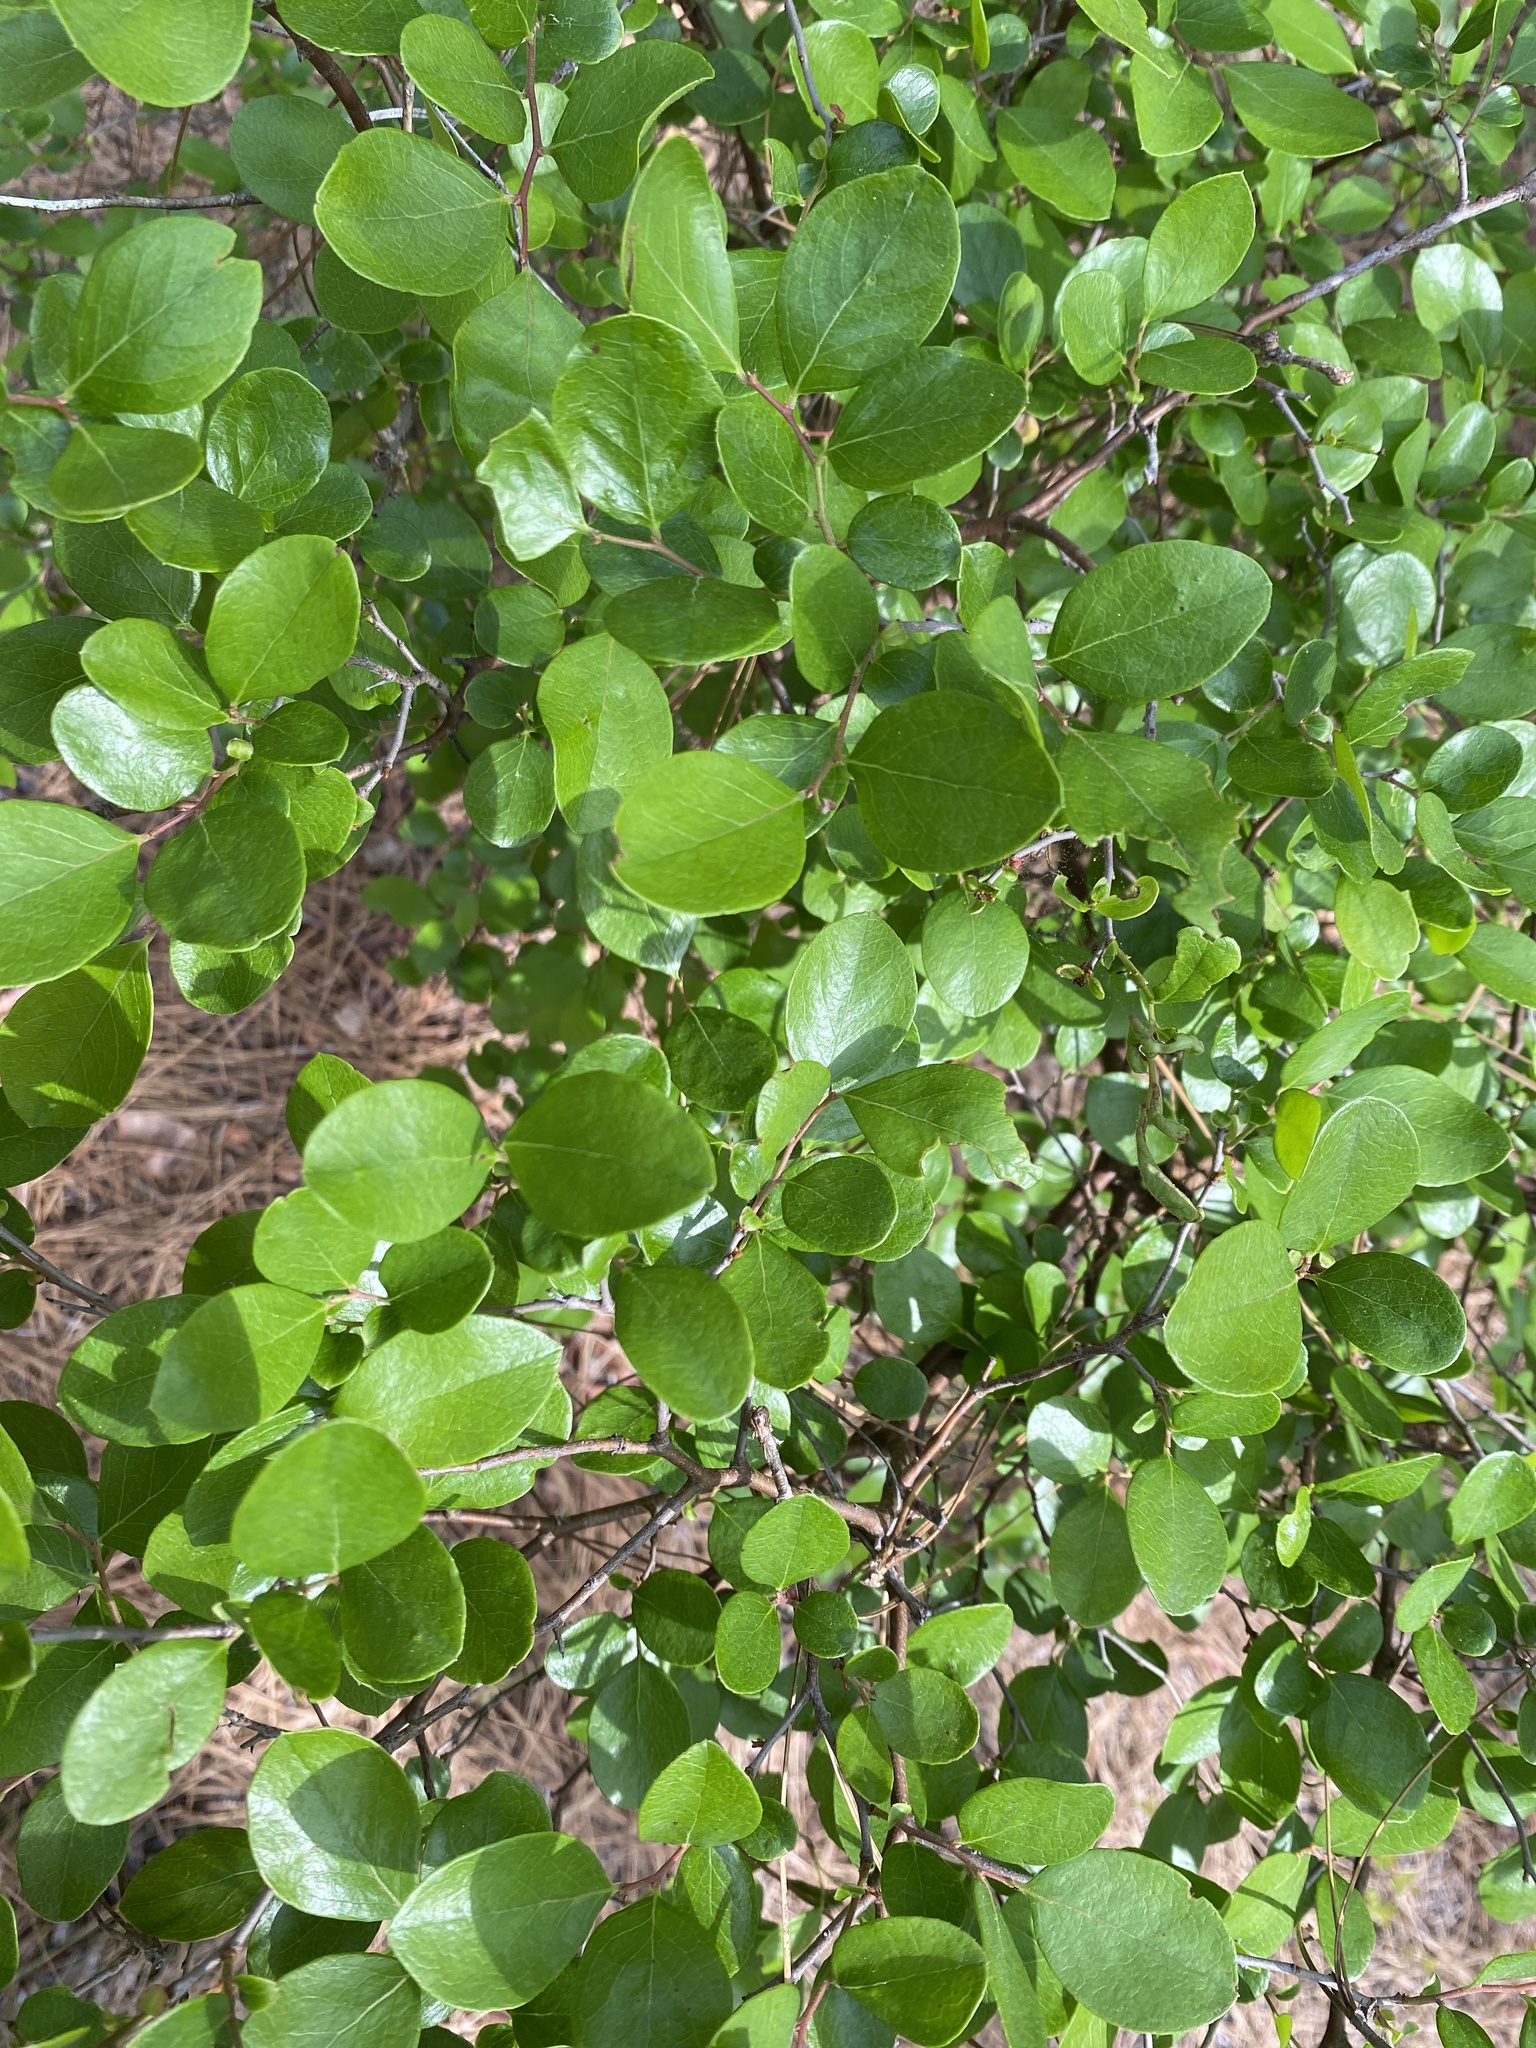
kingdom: Plantae
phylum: Tracheophyta
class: Magnoliopsida
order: Ericales
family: Ericaceae
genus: Vaccinium
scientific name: Vaccinium arboreum
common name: Farkleberry
